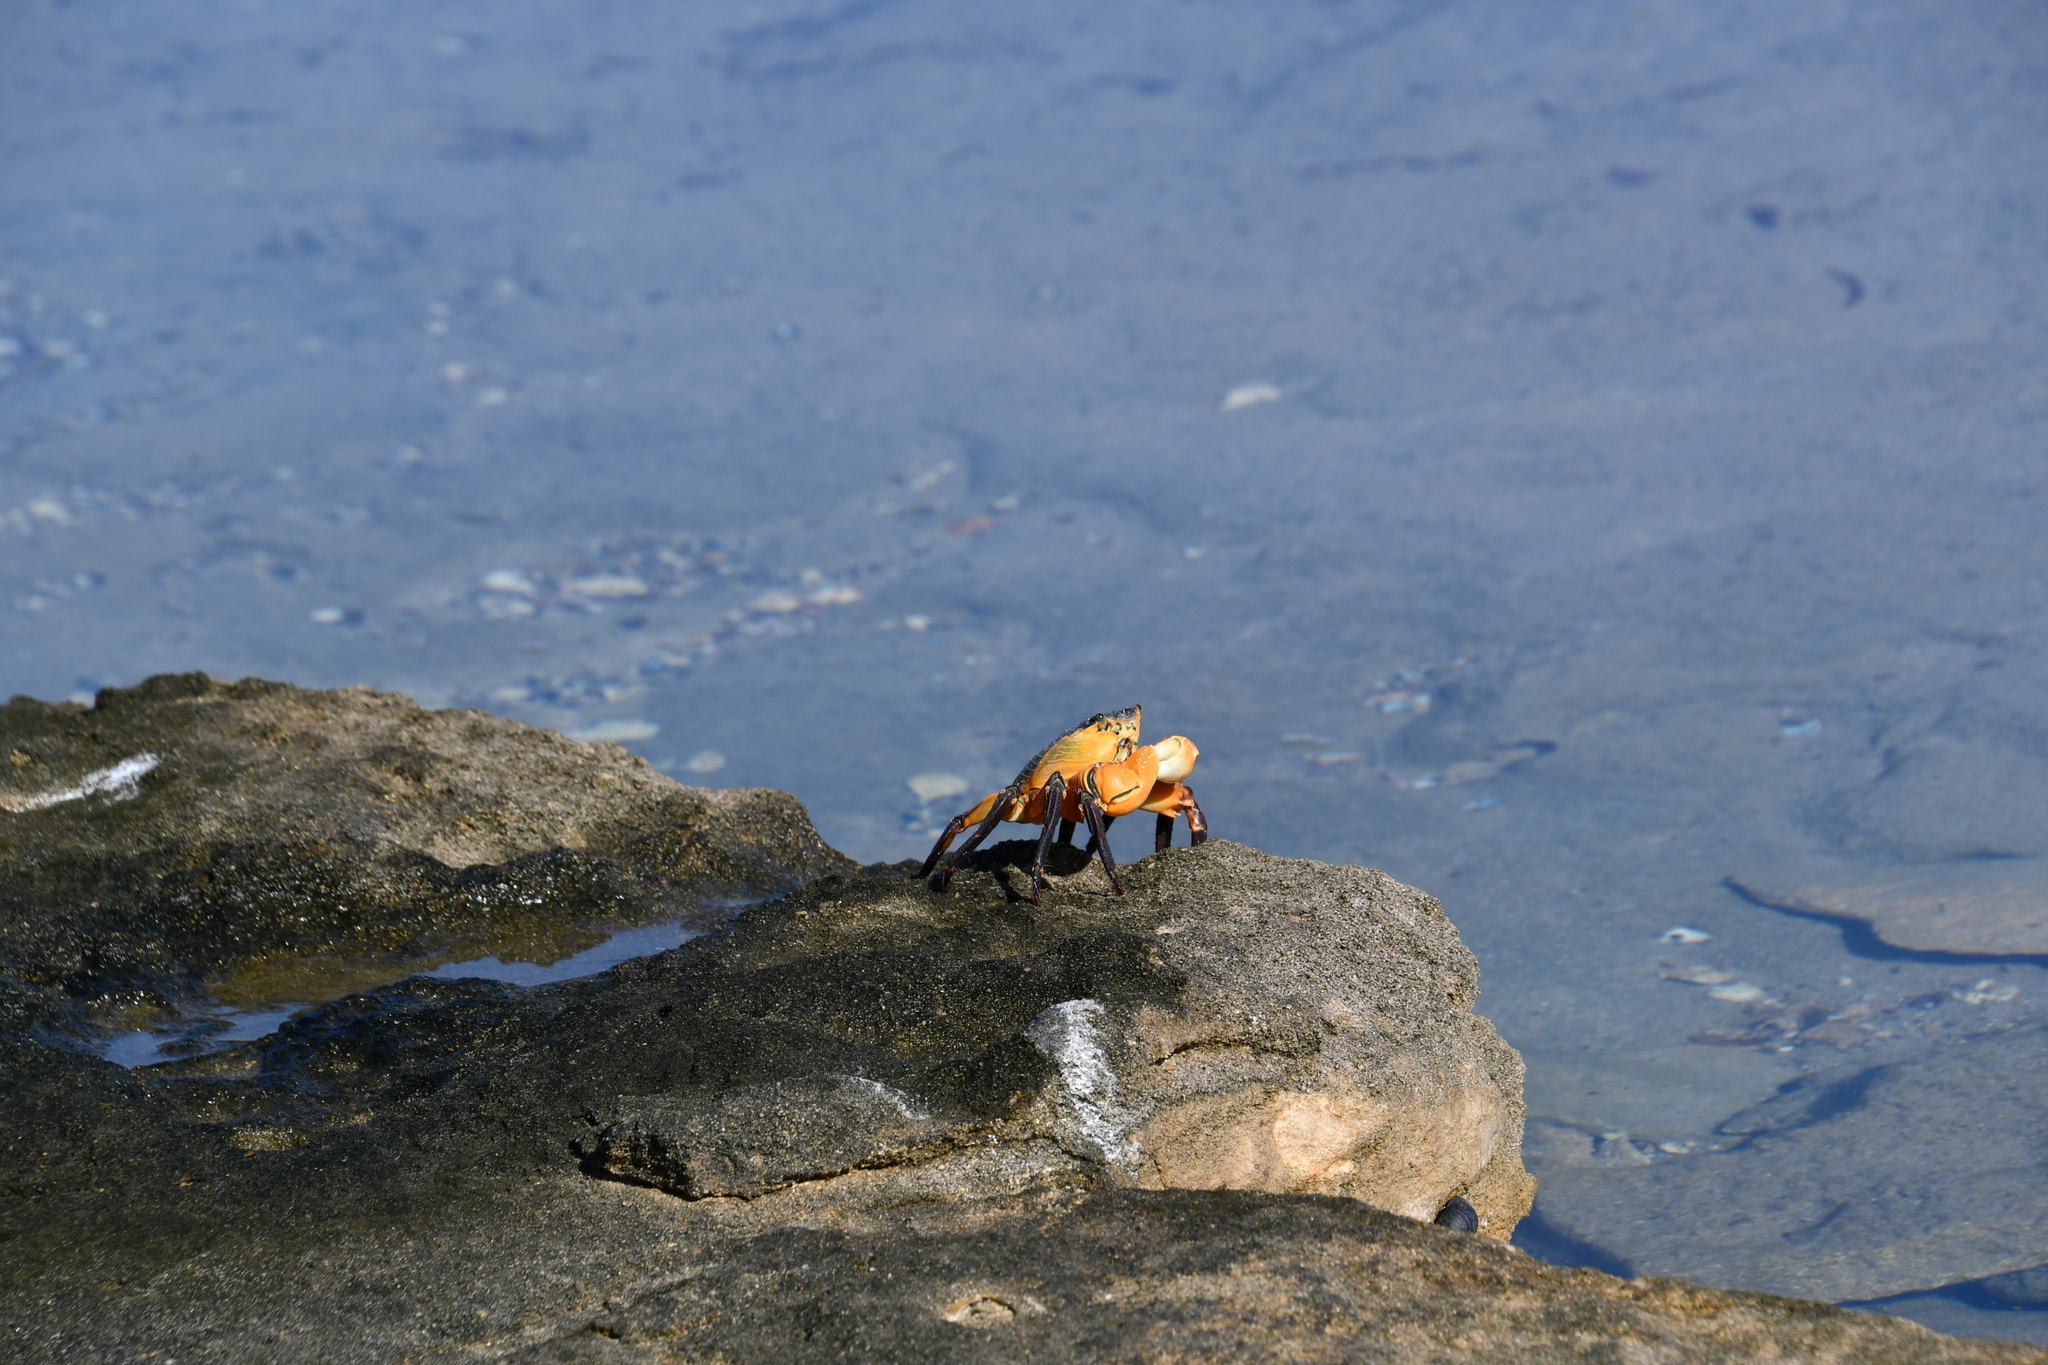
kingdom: Animalia
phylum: Arthropoda
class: Malacostraca
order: Decapoda
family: Grapsidae
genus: Leptograpsus
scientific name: Leptograpsus variegatus
